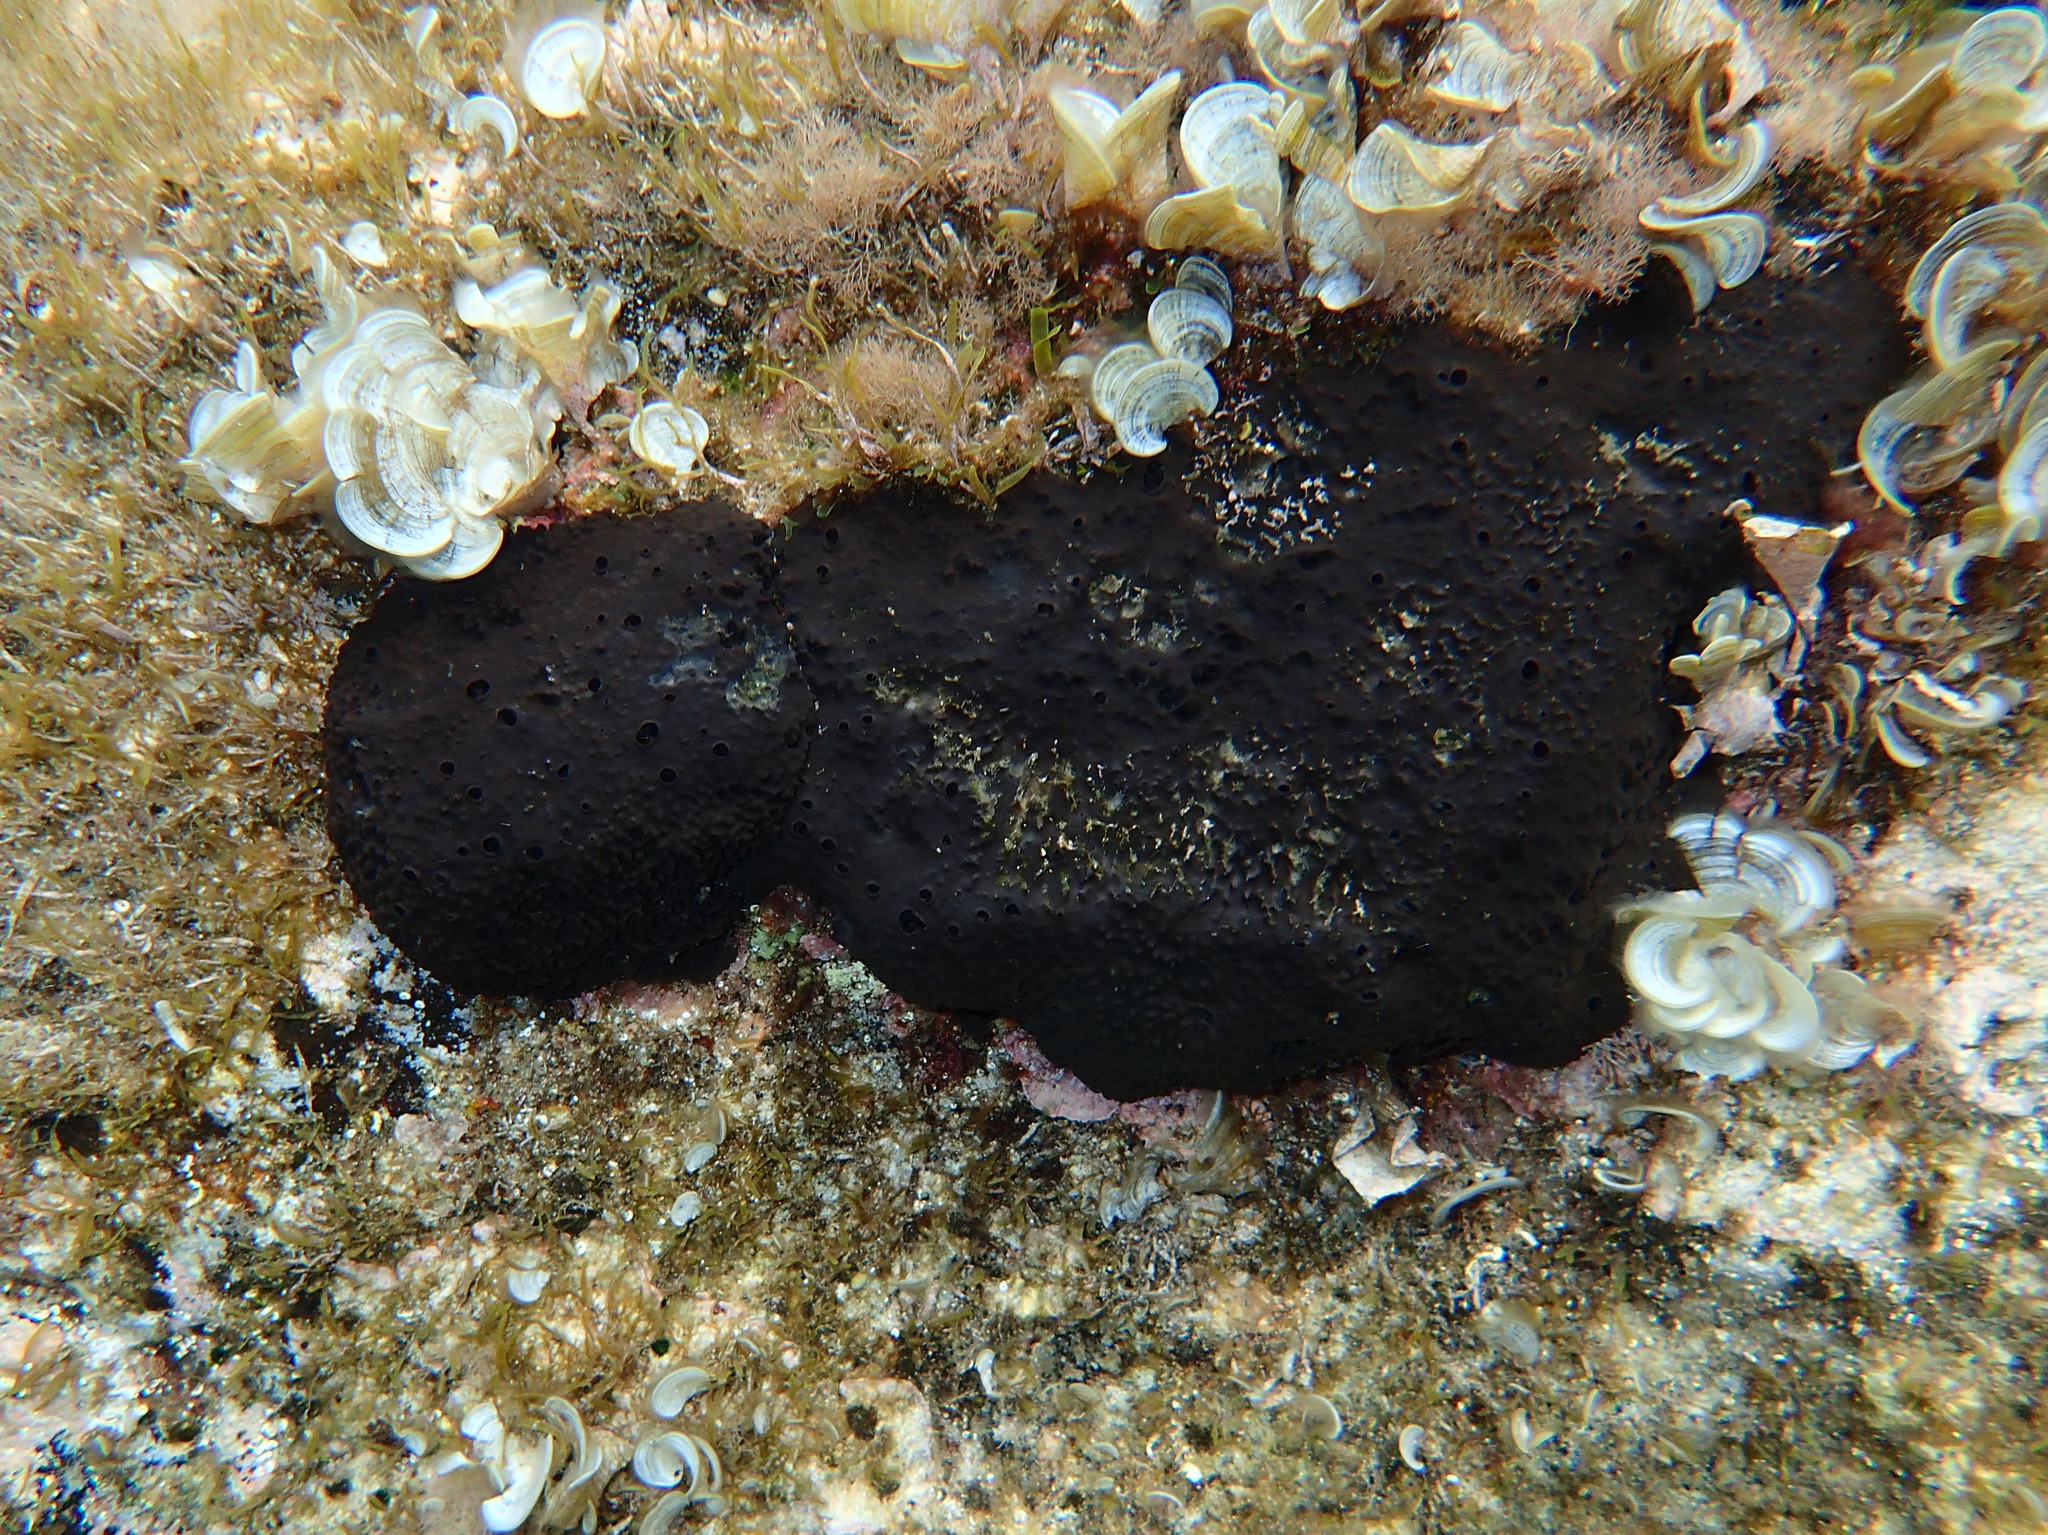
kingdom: Animalia
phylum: Porifera
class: Demospongiae
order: Dictyoceratida
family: Irciniidae
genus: Sarcotragus
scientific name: Sarcotragus spinosulus
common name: Black leather sponge
